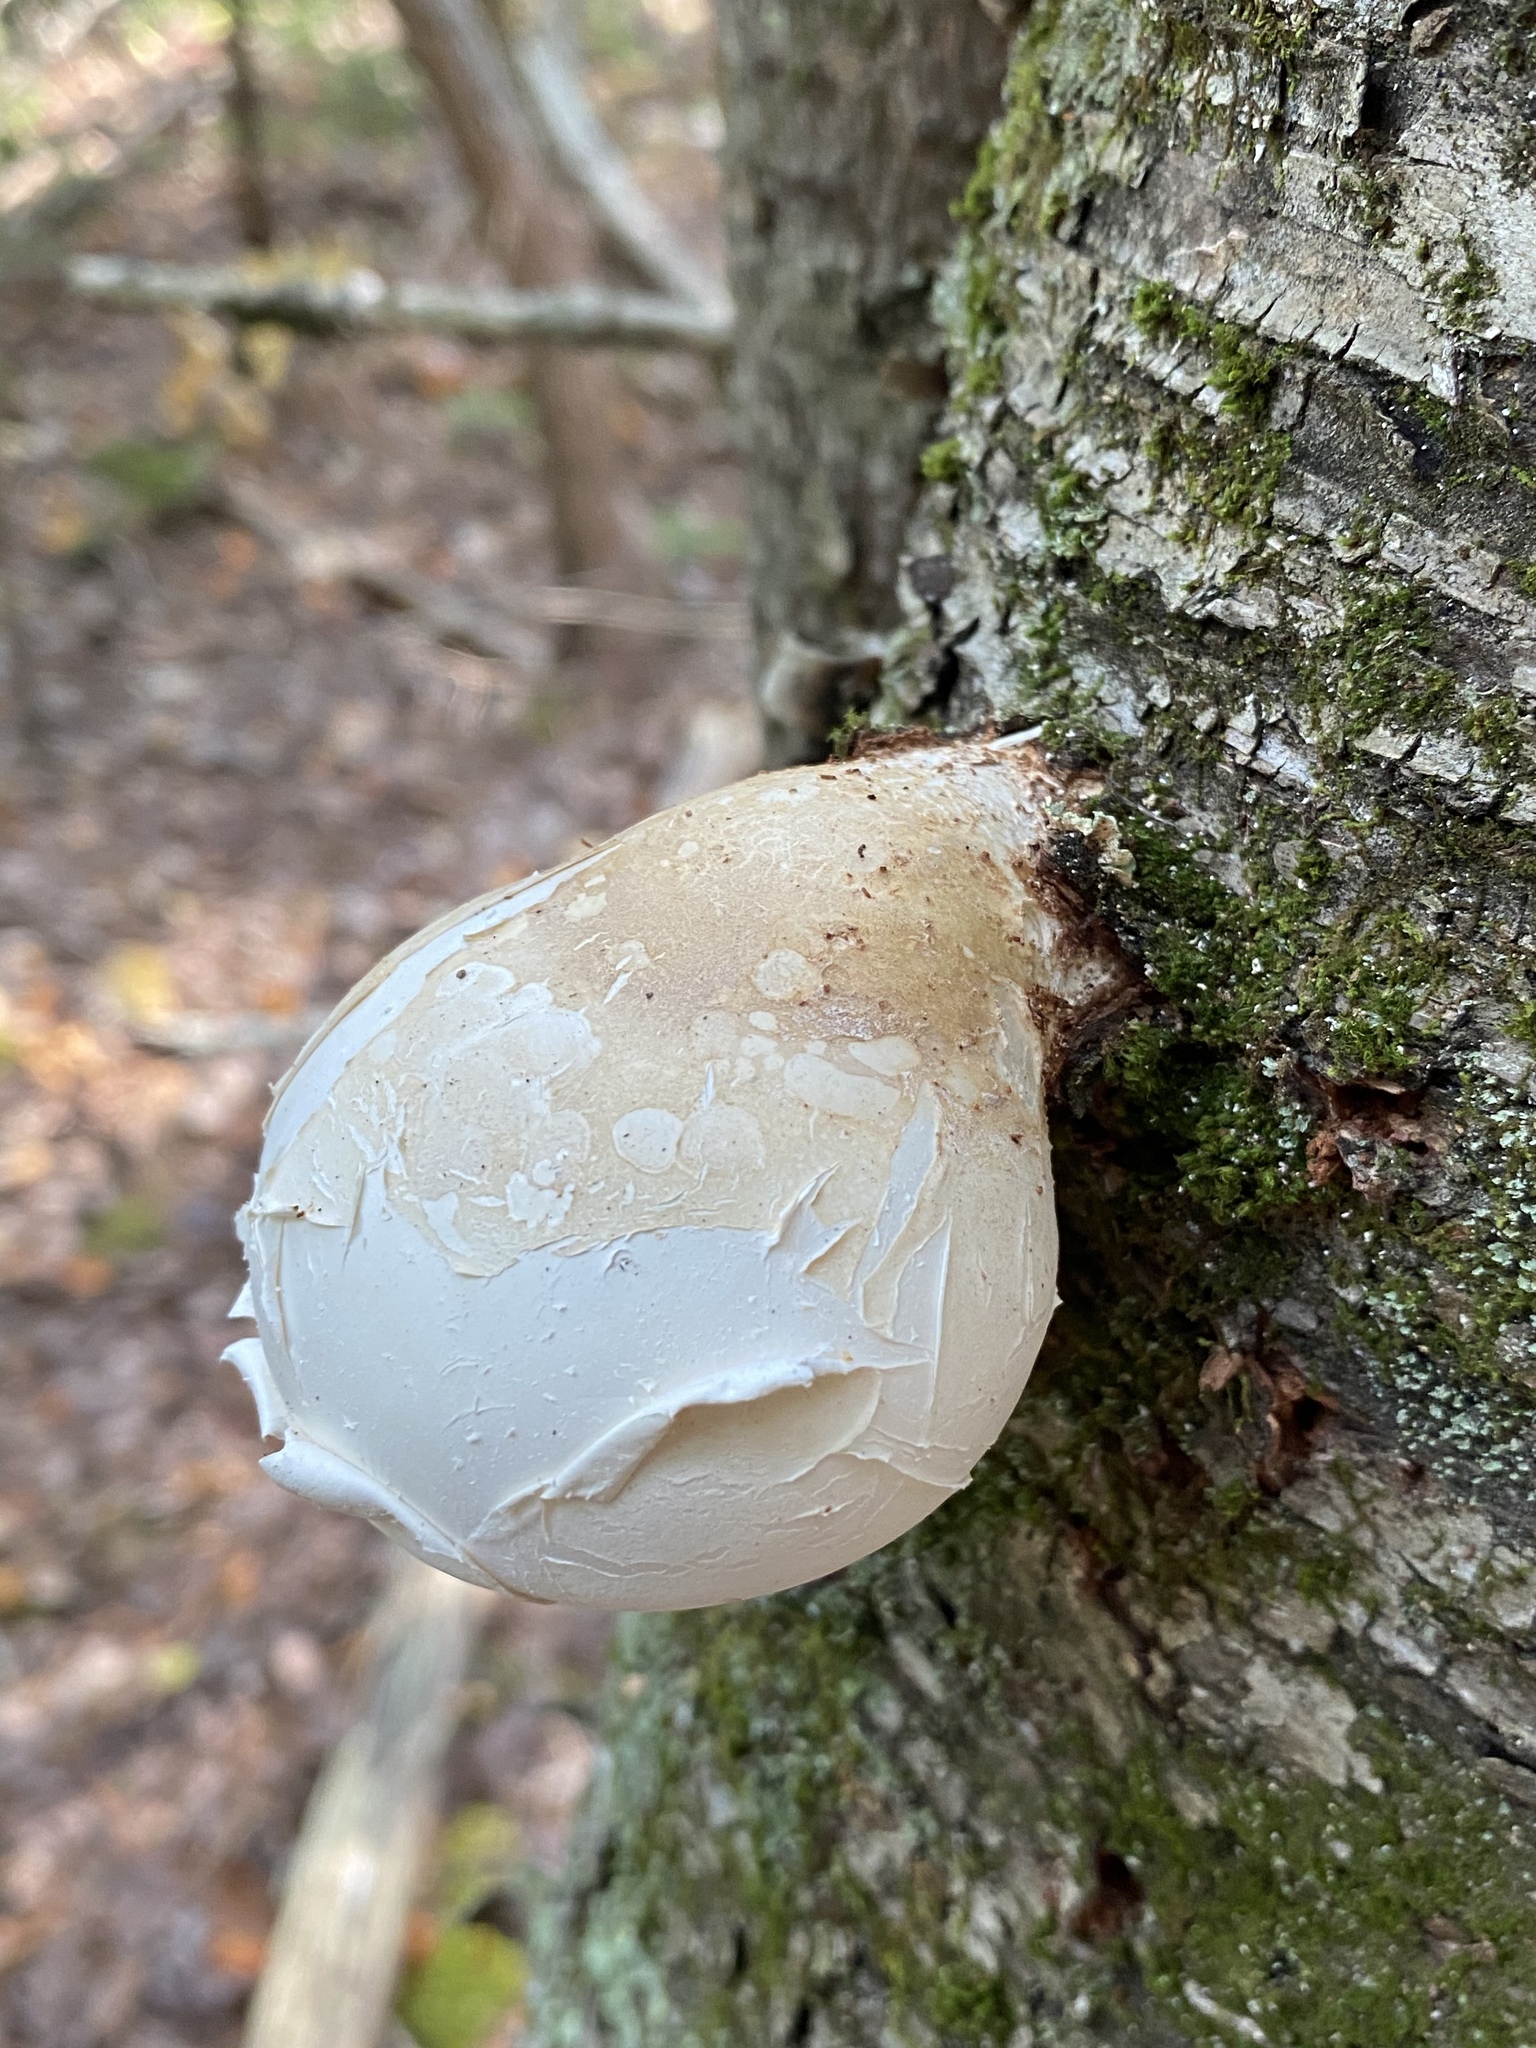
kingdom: Fungi
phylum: Basidiomycota
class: Agaricomycetes
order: Polyporales
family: Fomitopsidaceae
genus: Fomitopsis
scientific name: Fomitopsis betulina
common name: Birch polypore
